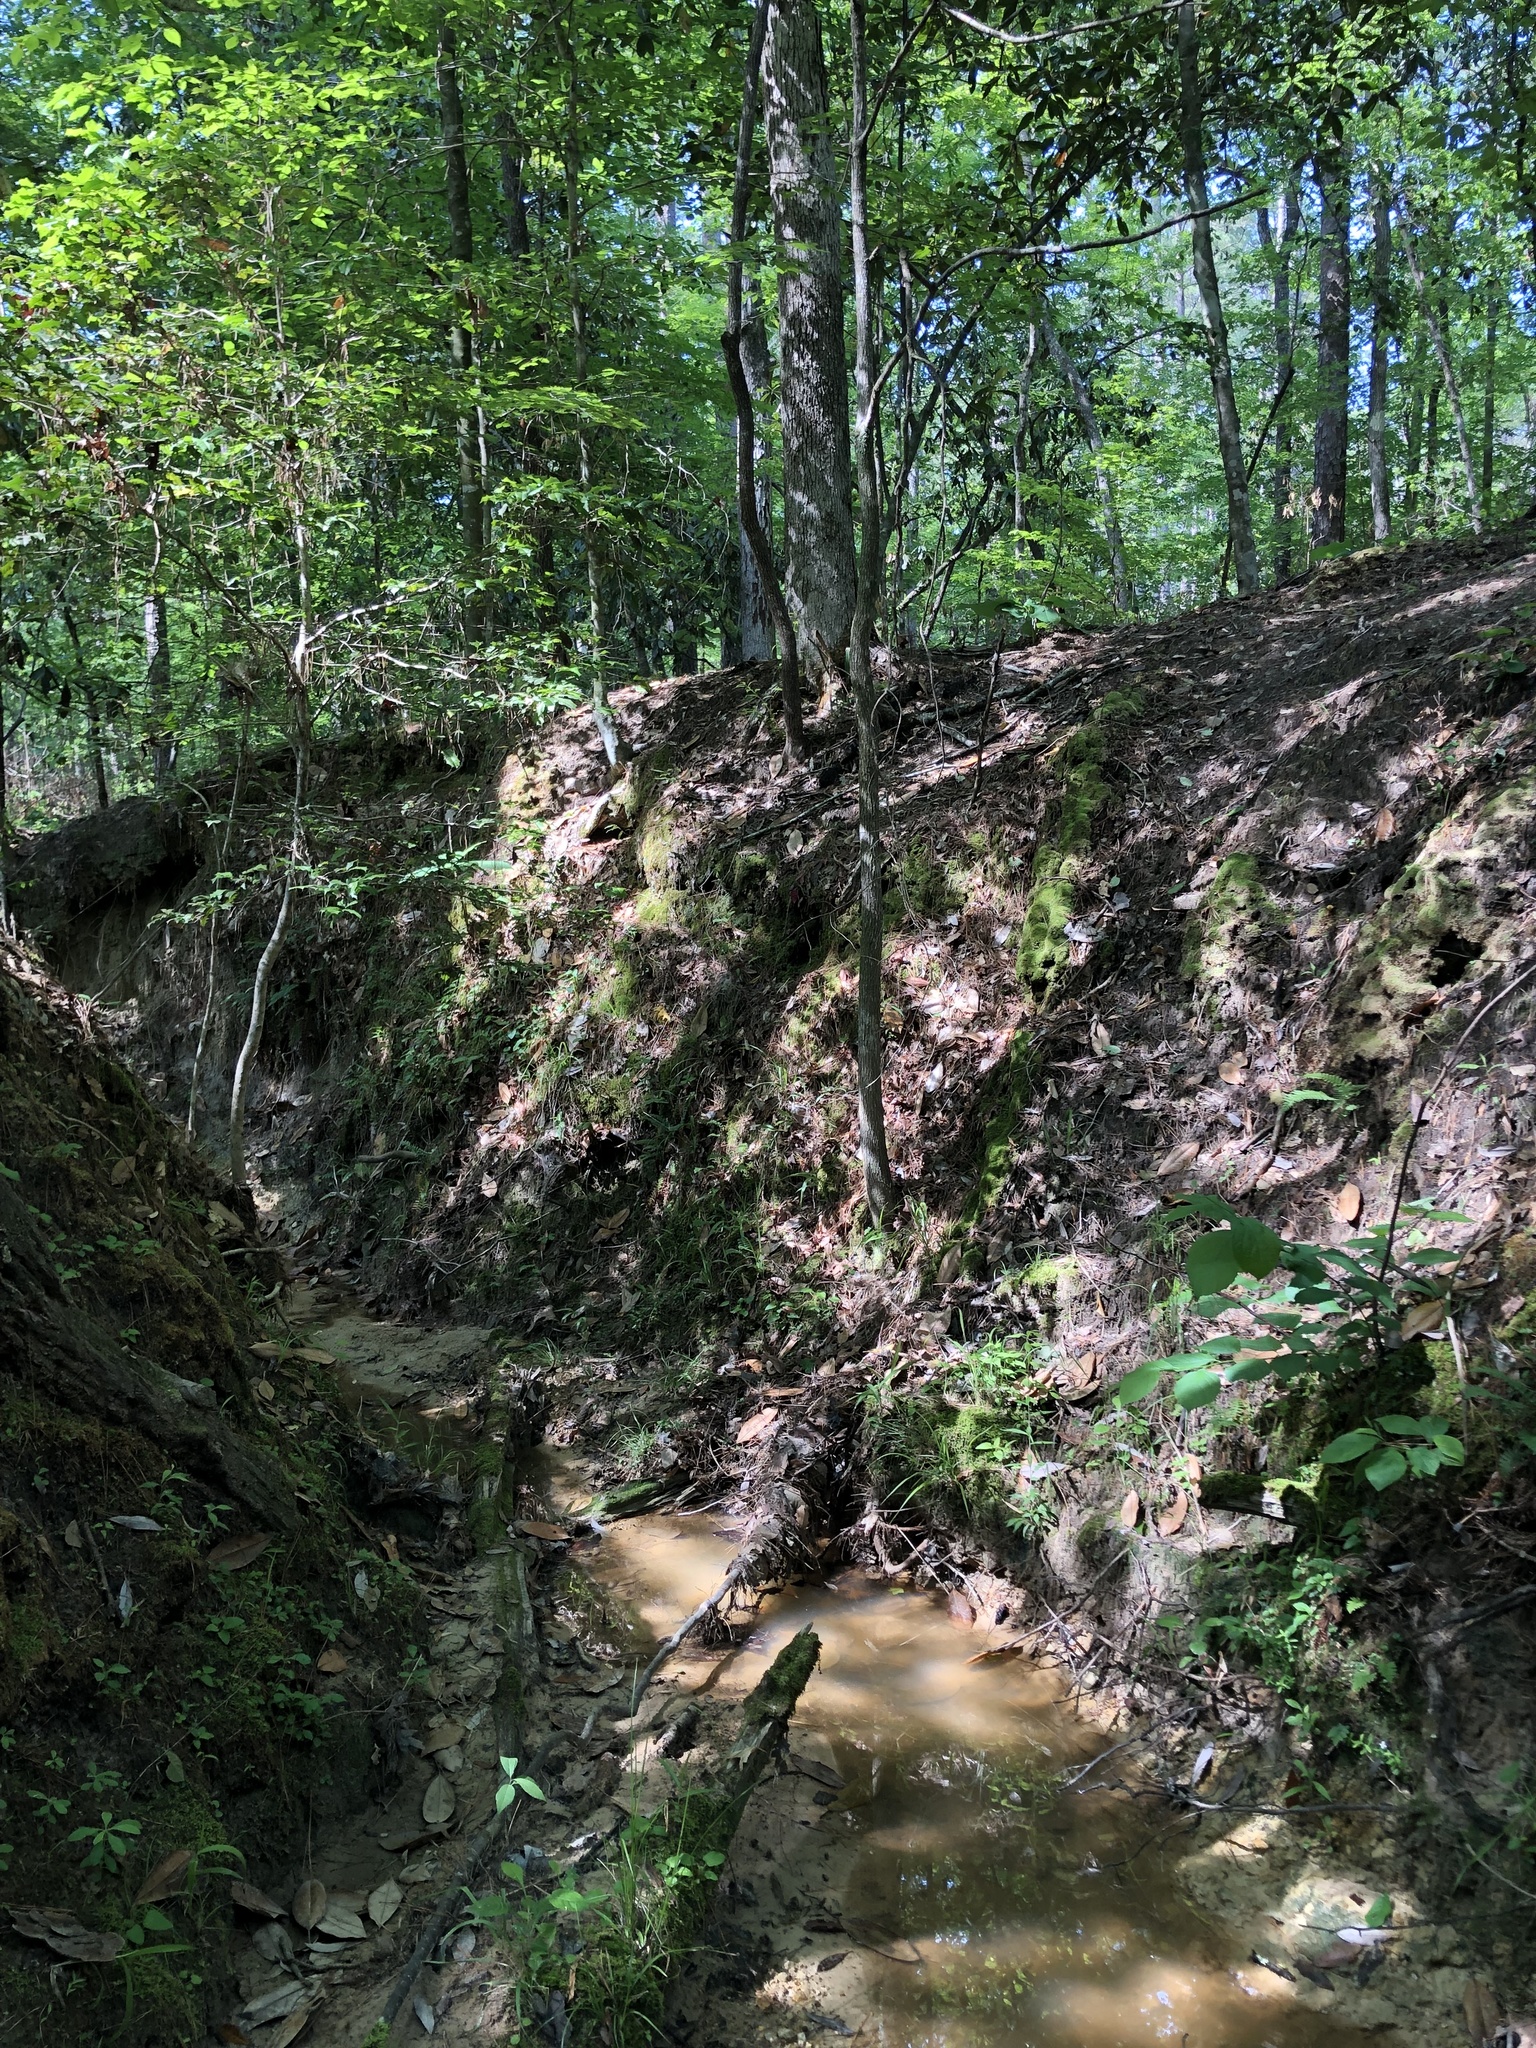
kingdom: Plantae
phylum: Tracheophyta
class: Liliopsida
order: Poales
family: Poaceae
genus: Dichanthelium
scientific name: Dichanthelium polyanthes
